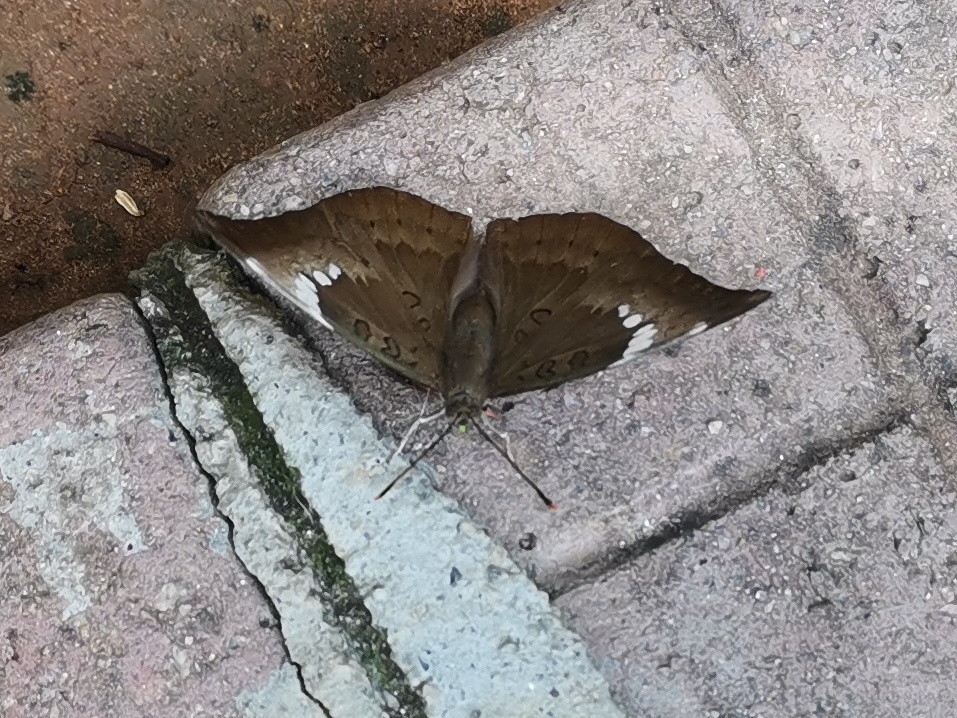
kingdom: Animalia
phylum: Arthropoda
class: Insecta
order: Lepidoptera
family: Nymphalidae
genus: Euthalia
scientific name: Euthalia aconthea
